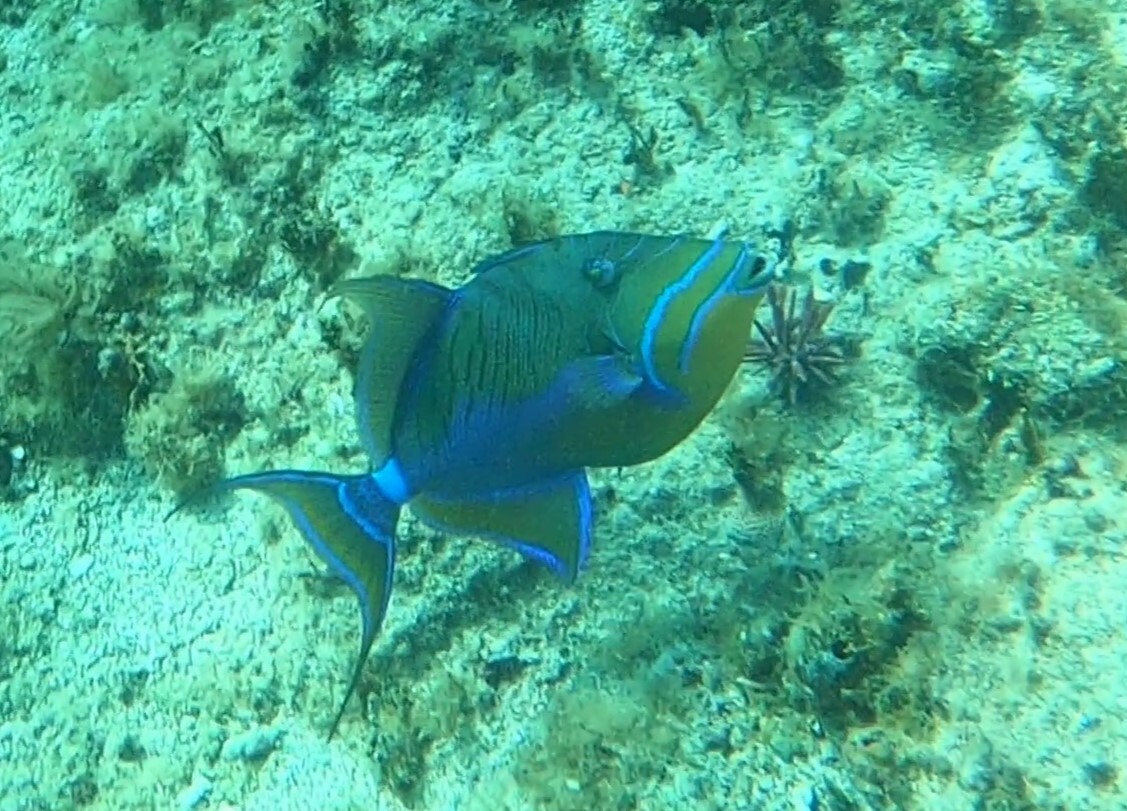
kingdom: Animalia
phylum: Chordata
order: Tetraodontiformes
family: Balistidae
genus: Balistes
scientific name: Balistes vetula
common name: Queen triggerfish
